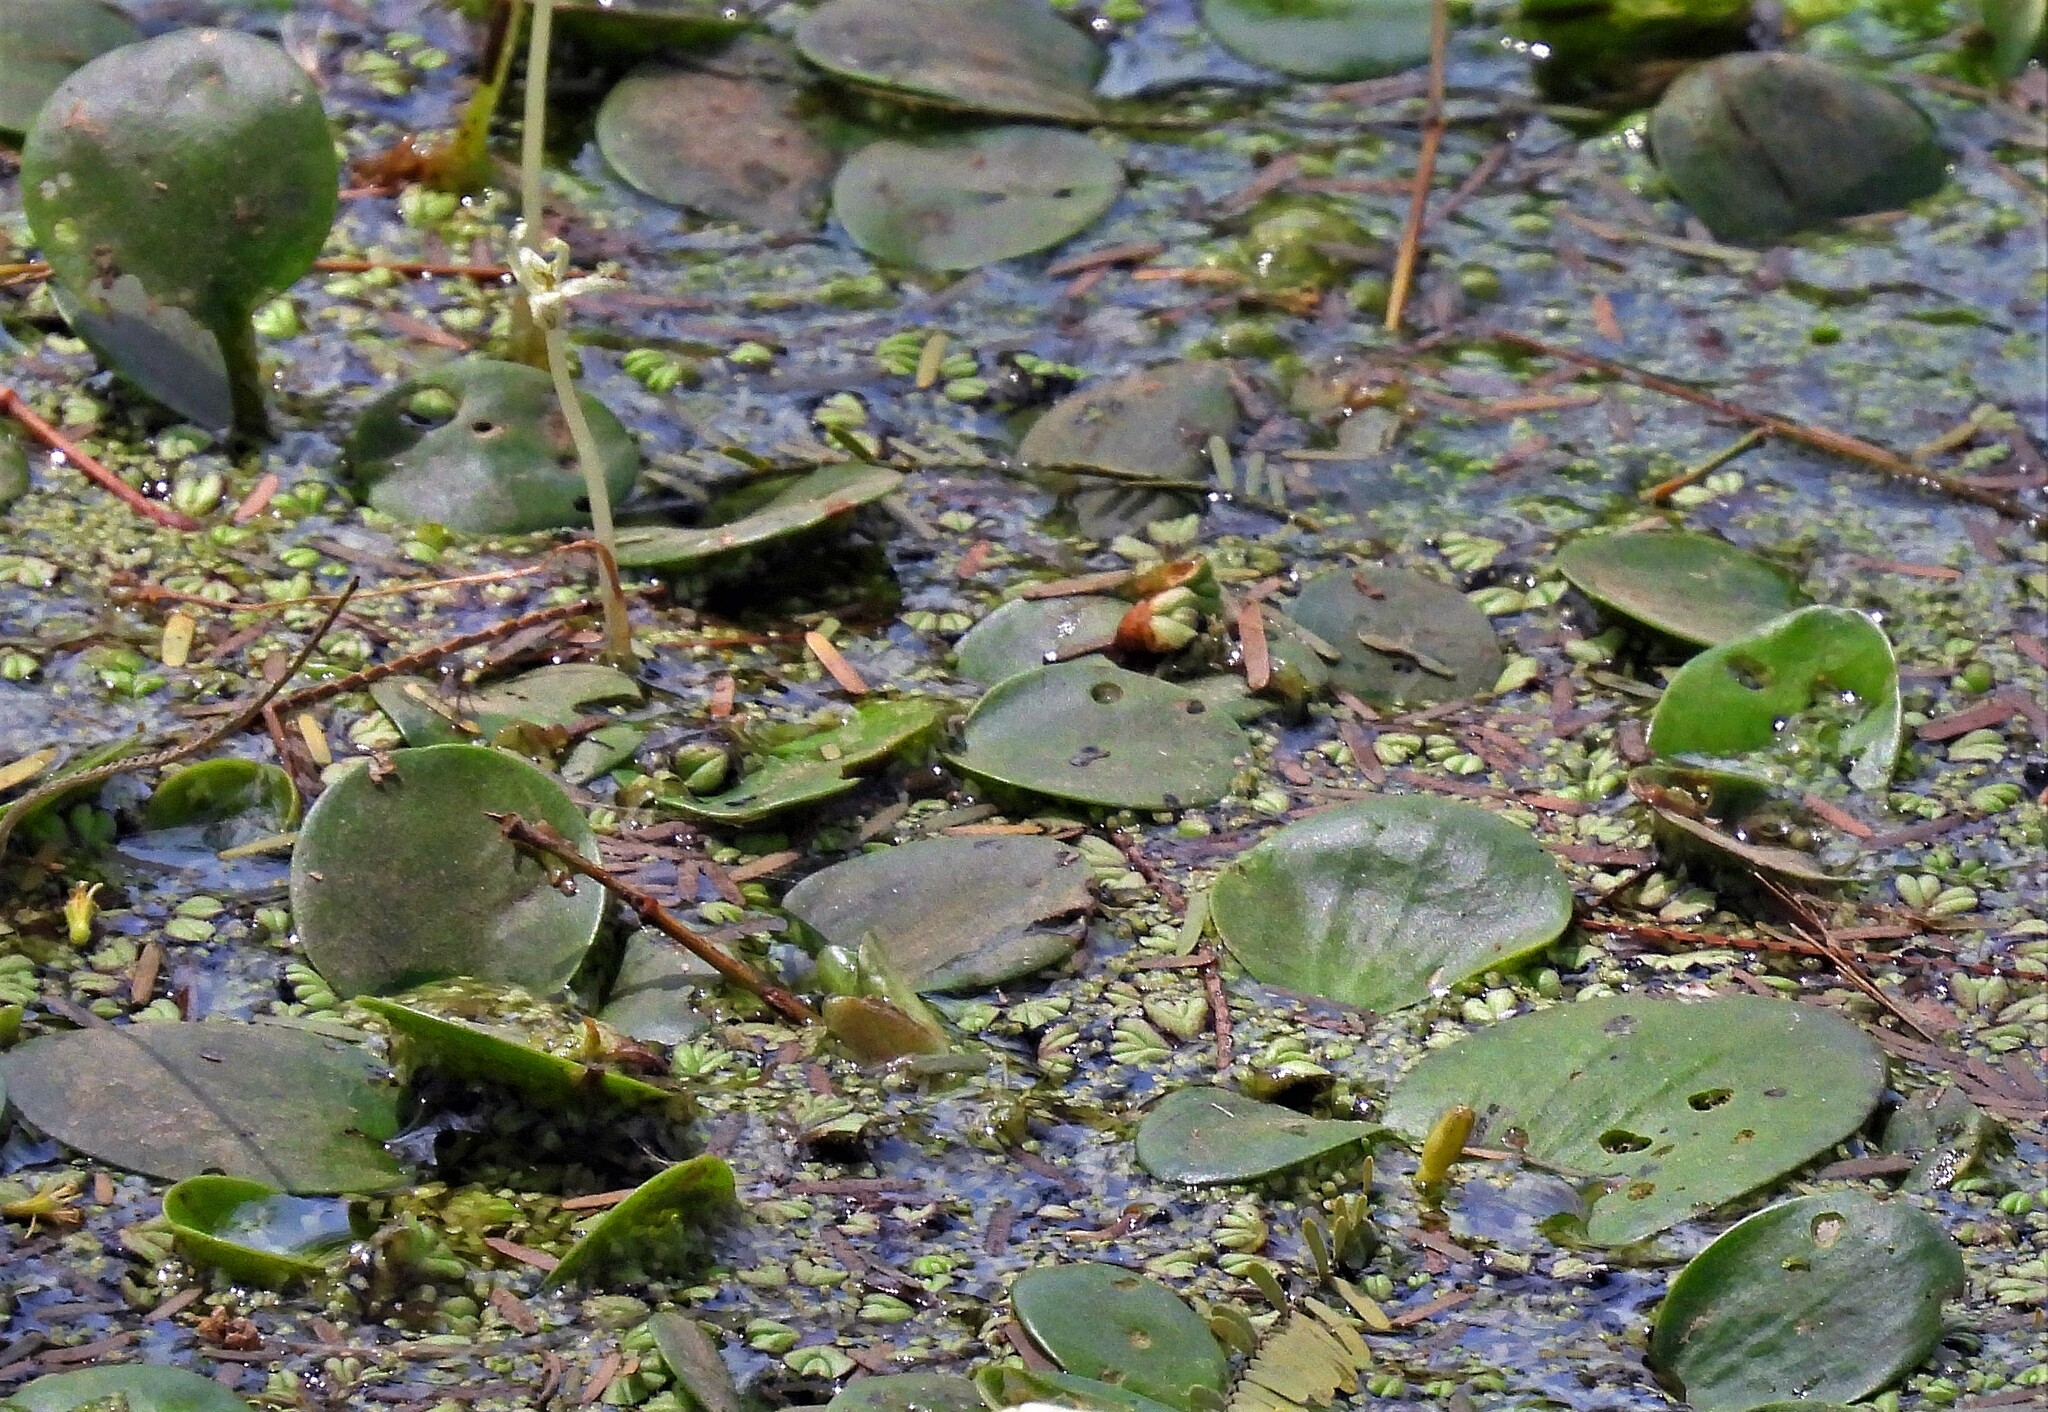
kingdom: Plantae
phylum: Tracheophyta
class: Liliopsida
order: Alismatales
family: Hydrocharitaceae
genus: Hydrocharis
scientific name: Hydrocharis laevigata
